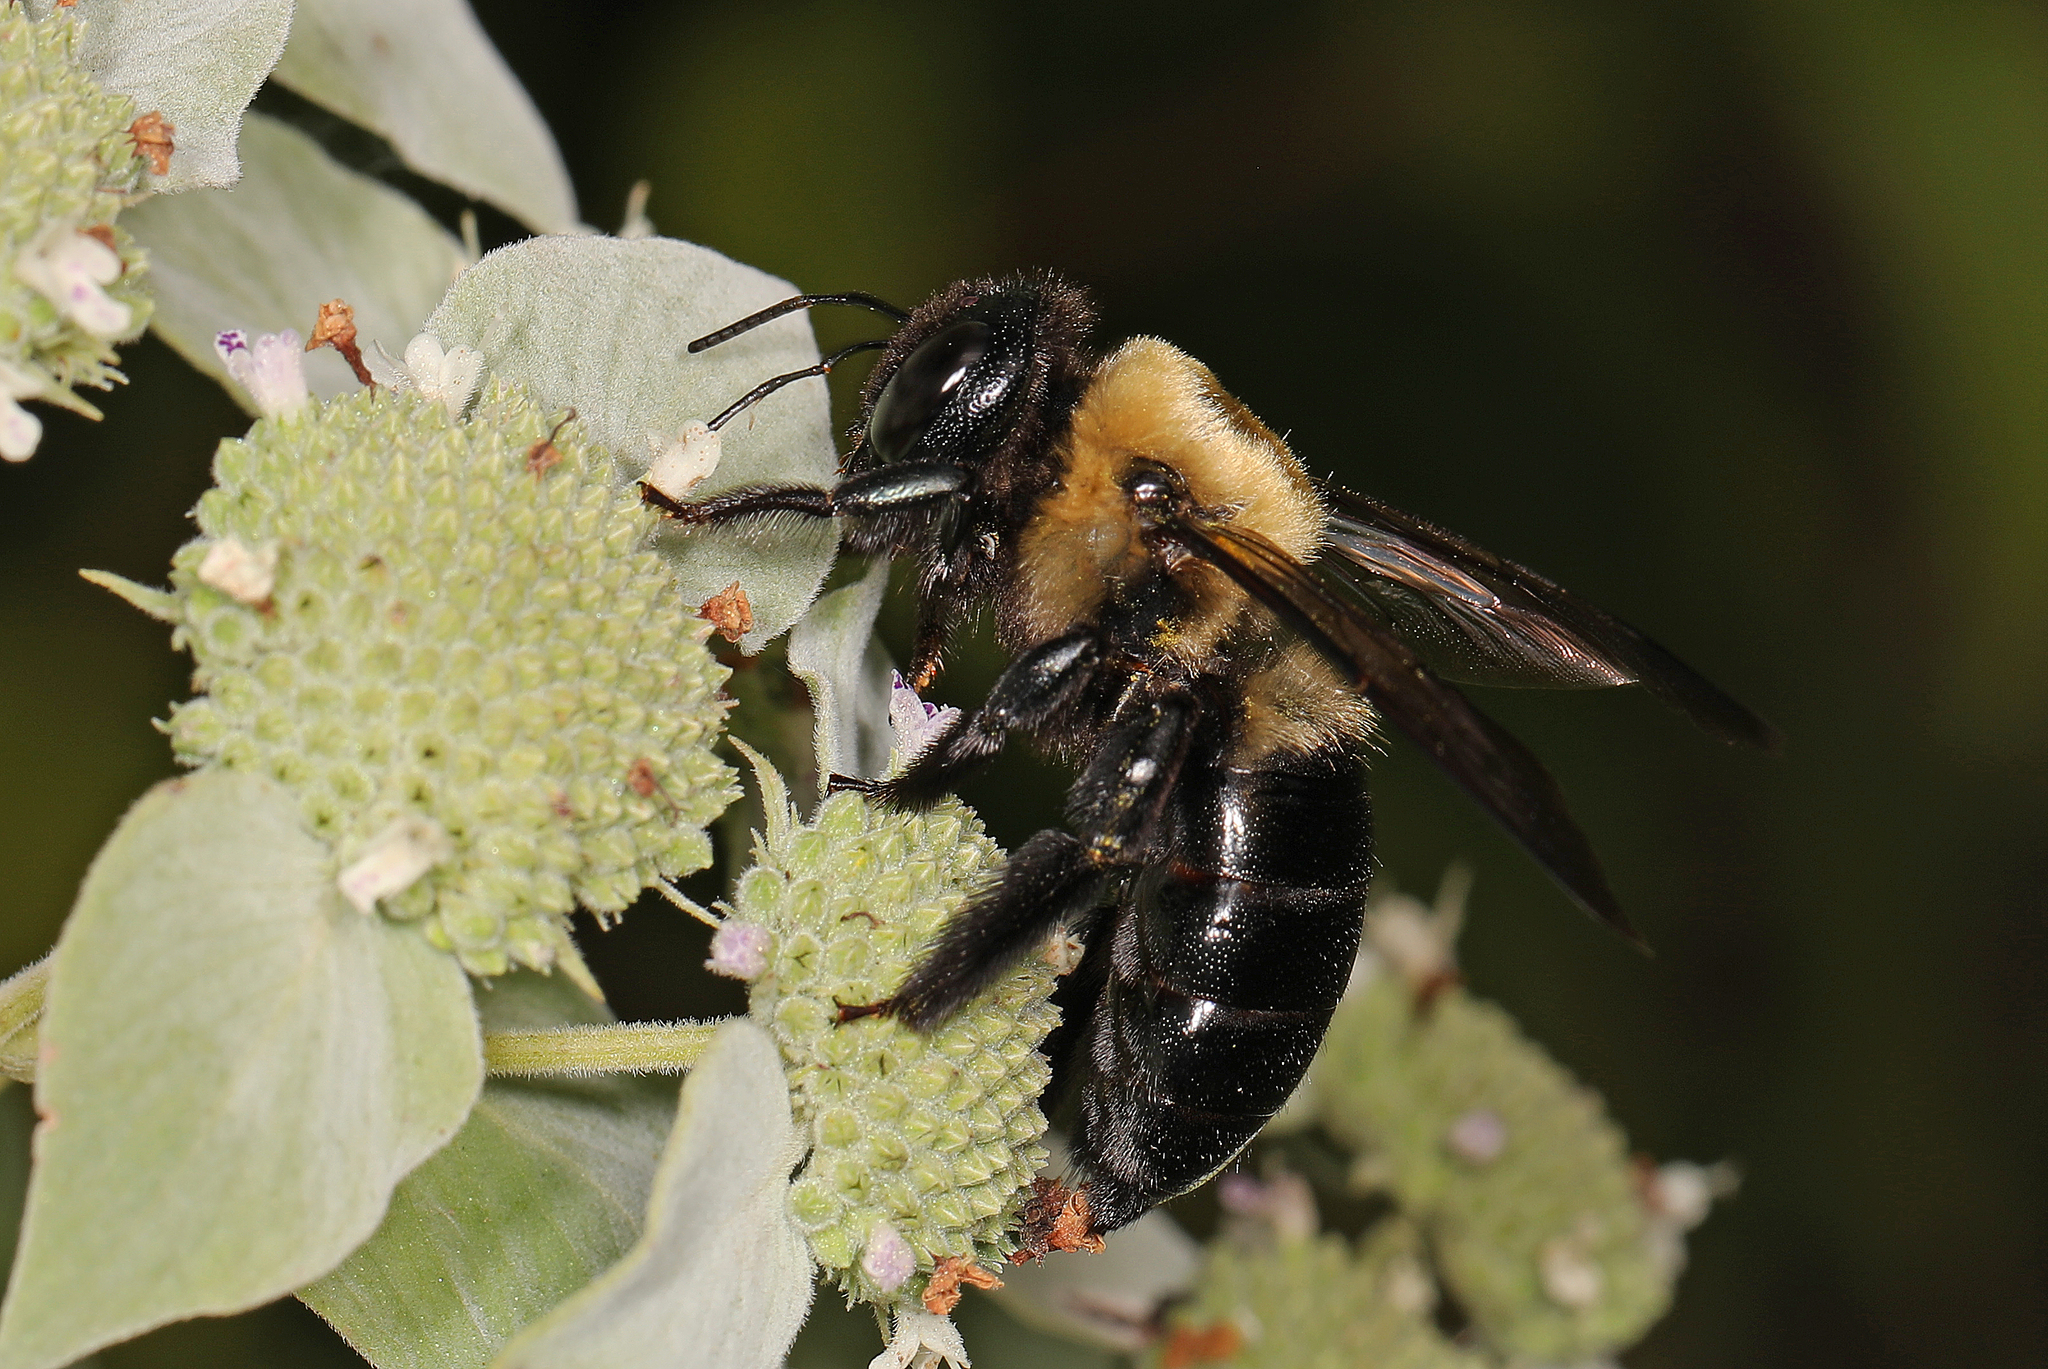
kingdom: Animalia
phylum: Arthropoda
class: Insecta
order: Hymenoptera
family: Apidae
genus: Xylocopa
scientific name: Xylocopa virginica
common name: Carpenter bee
